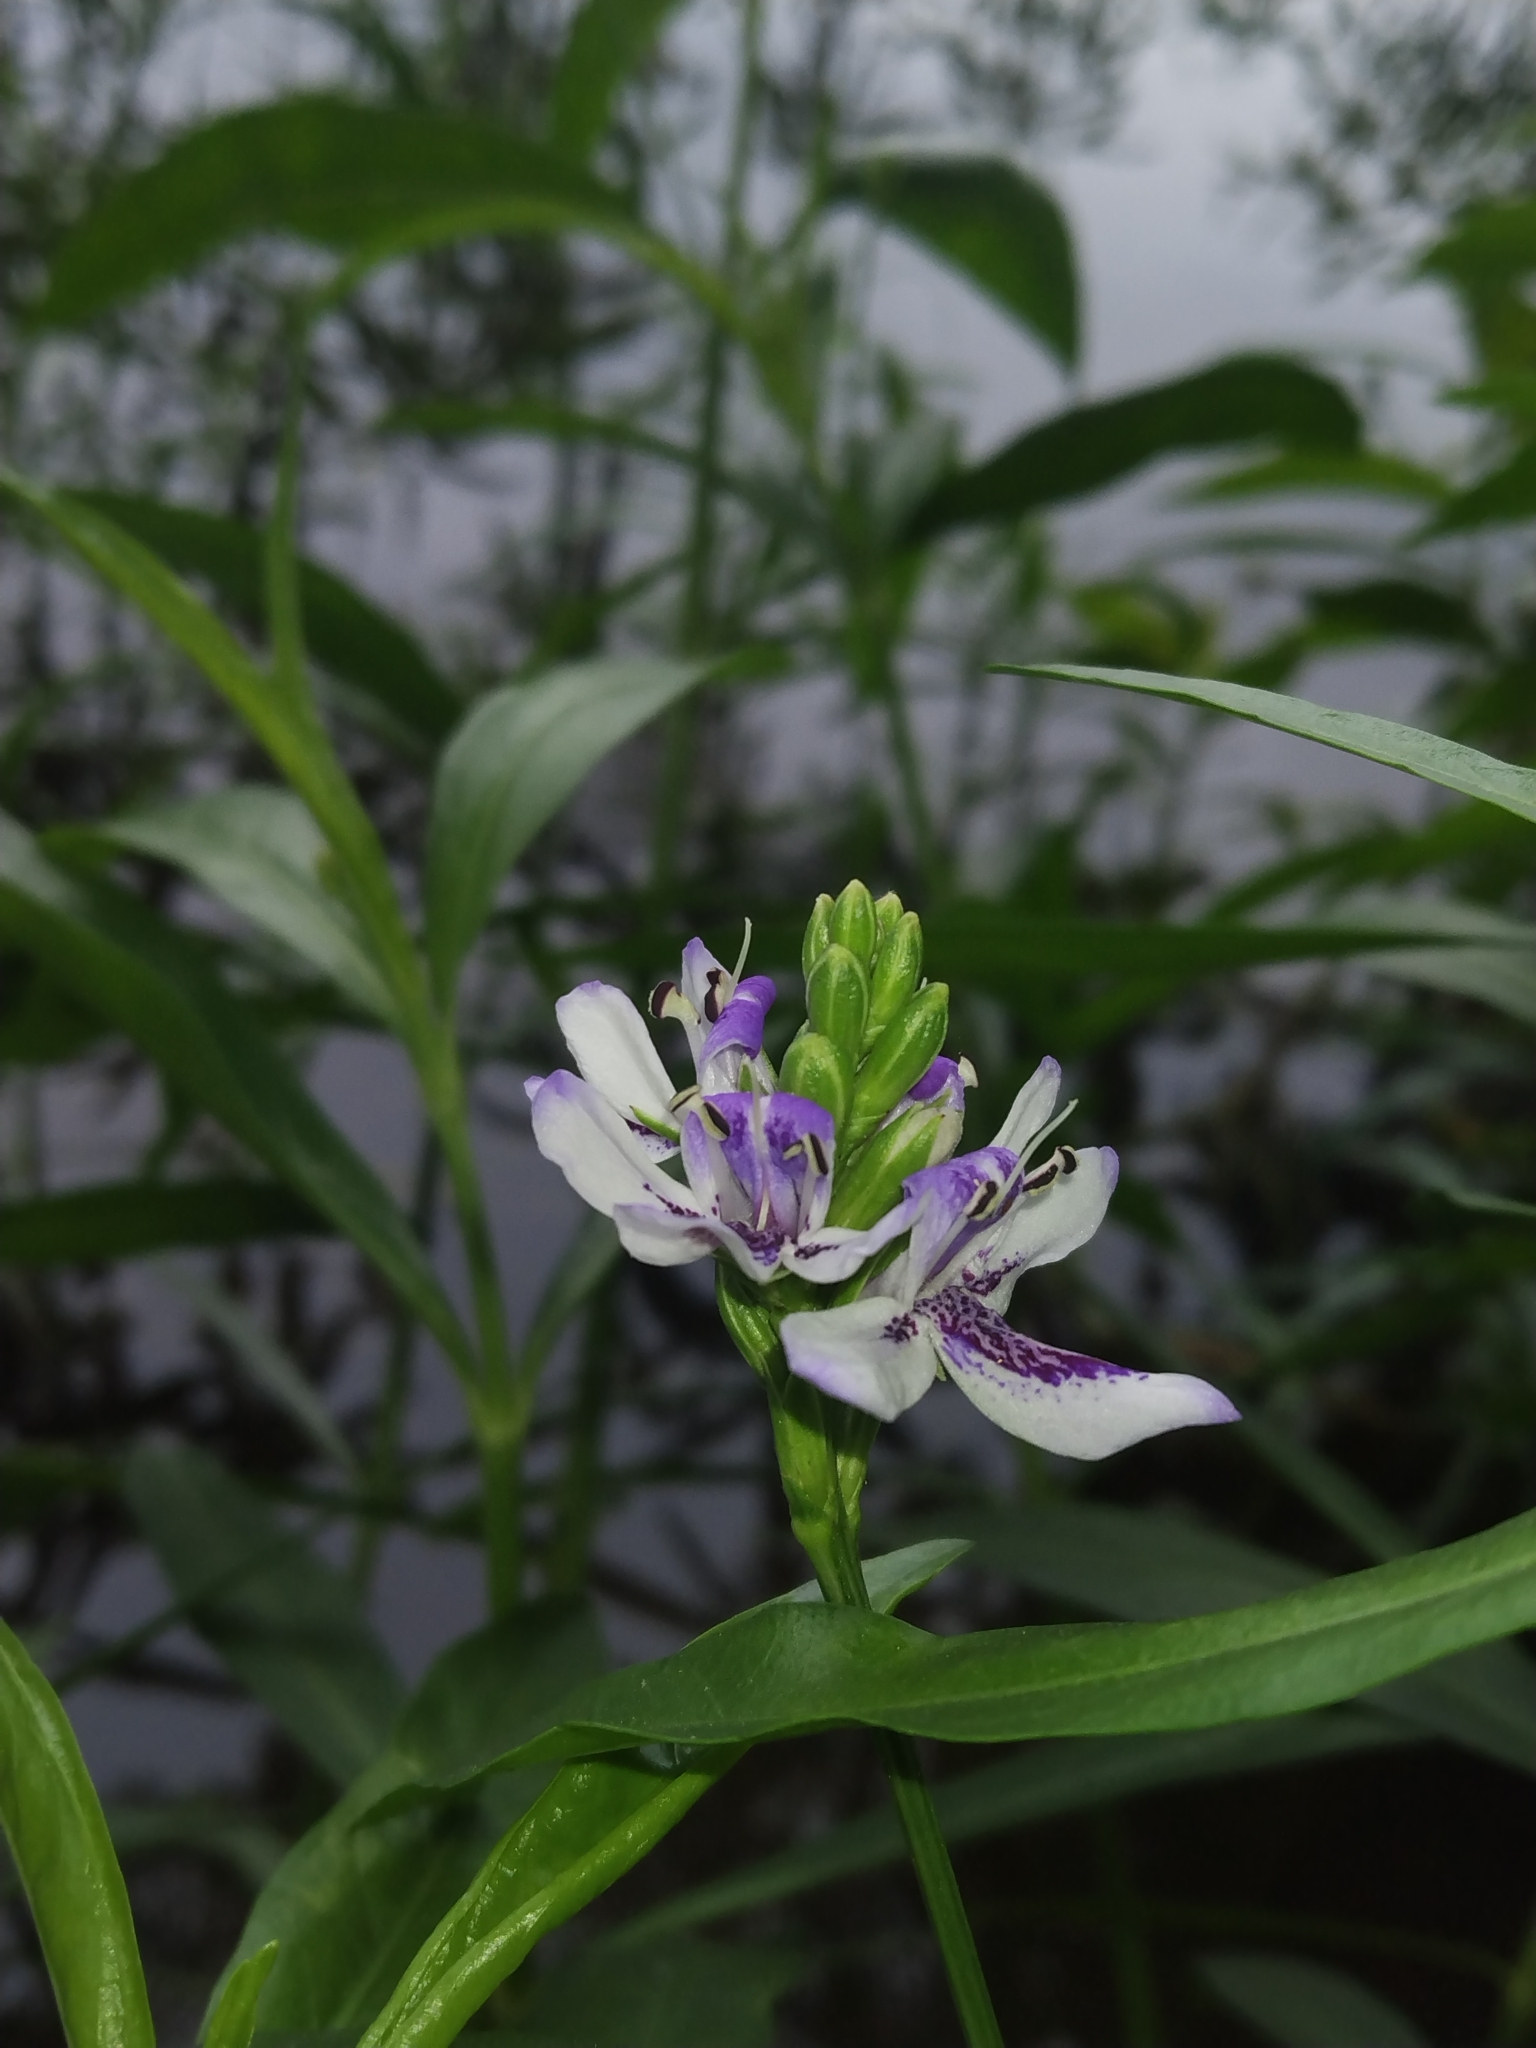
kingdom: Plantae
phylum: Tracheophyta
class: Magnoliopsida
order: Lamiales
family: Acanthaceae
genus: Dianthera
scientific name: Dianthera americana
